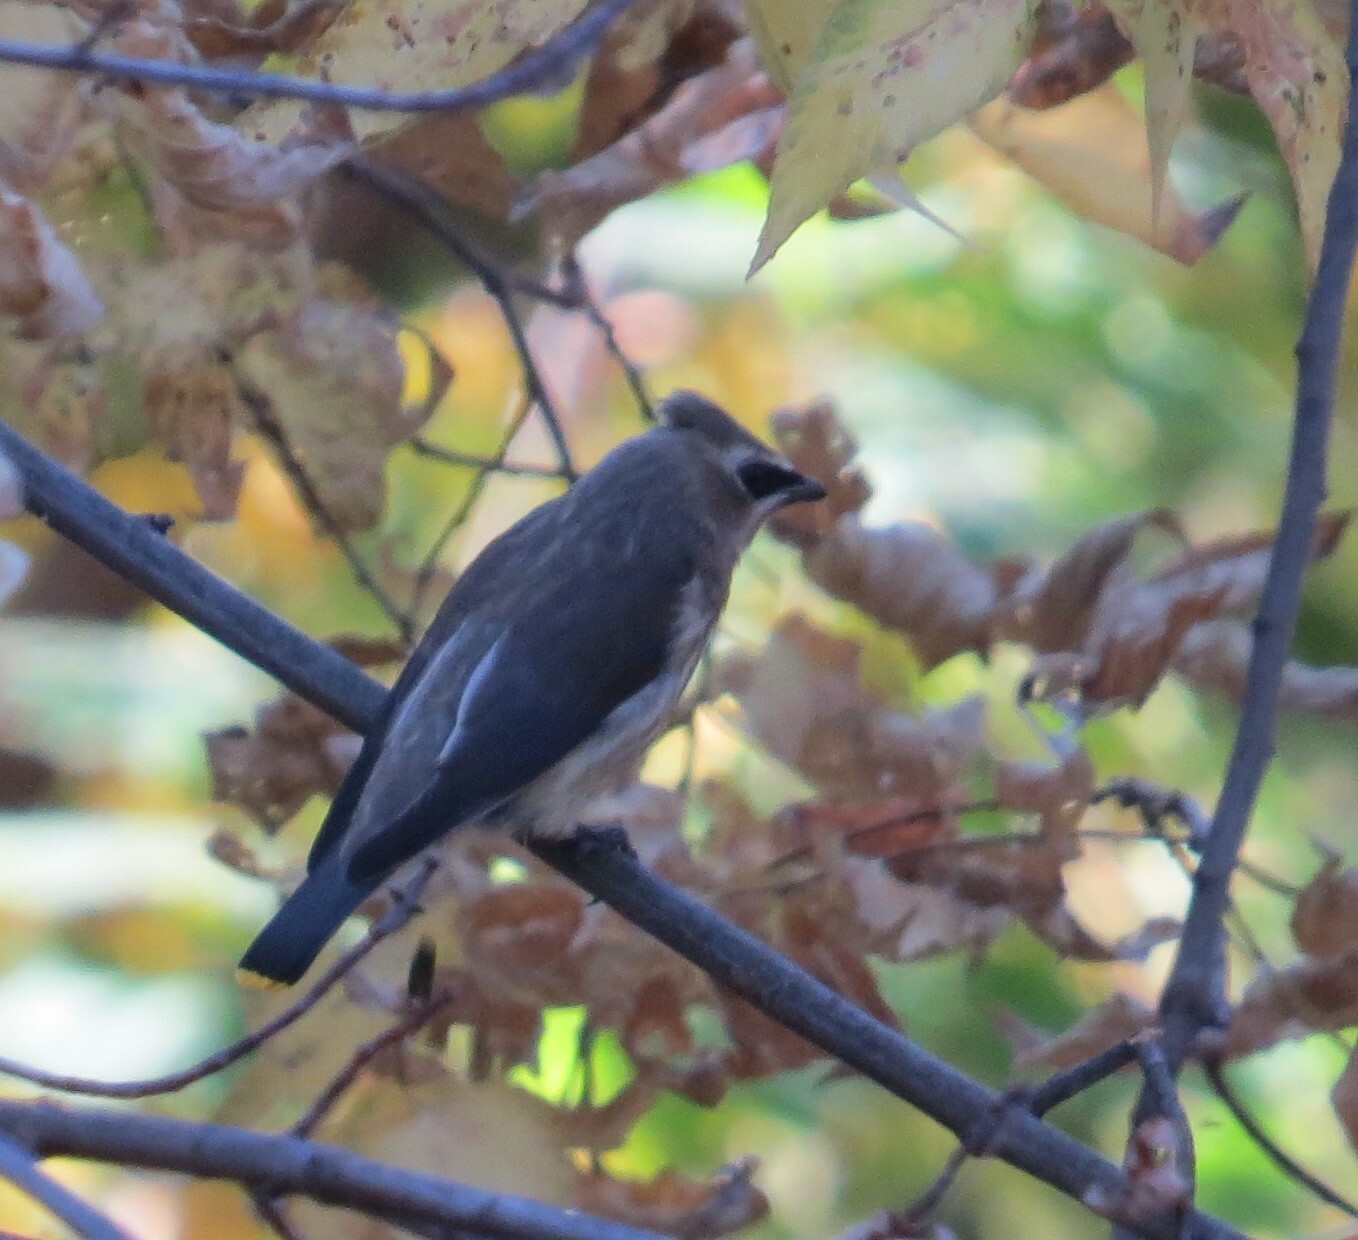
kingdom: Animalia
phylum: Chordata
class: Aves
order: Passeriformes
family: Bombycillidae
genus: Bombycilla
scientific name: Bombycilla cedrorum
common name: Cedar waxwing
